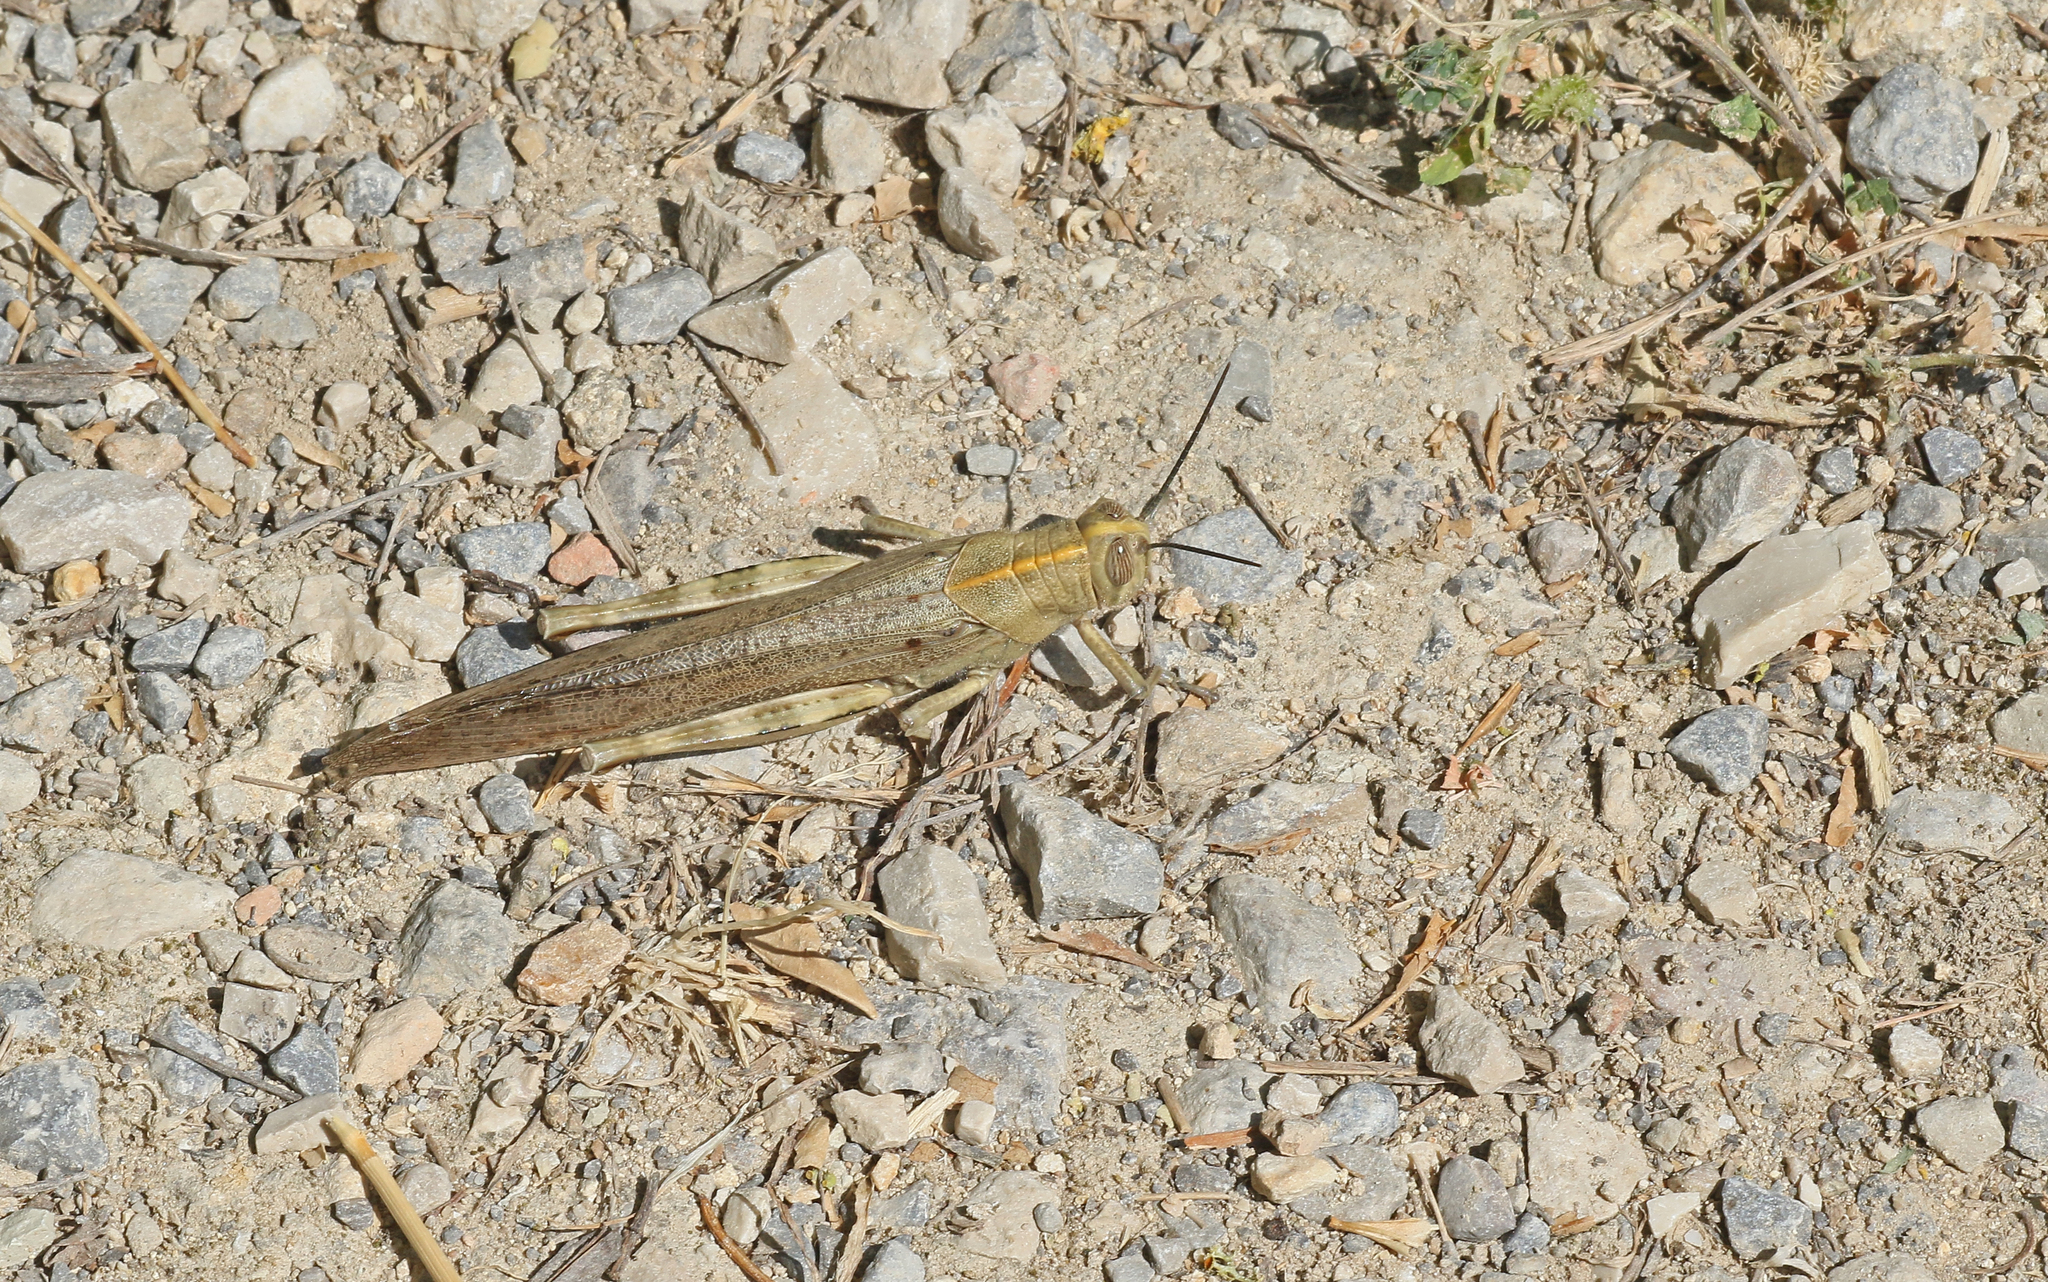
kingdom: Animalia
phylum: Arthropoda
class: Insecta
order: Orthoptera
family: Acrididae
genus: Anacridium
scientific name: Anacridium aegyptium
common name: Egyptian grasshopper
